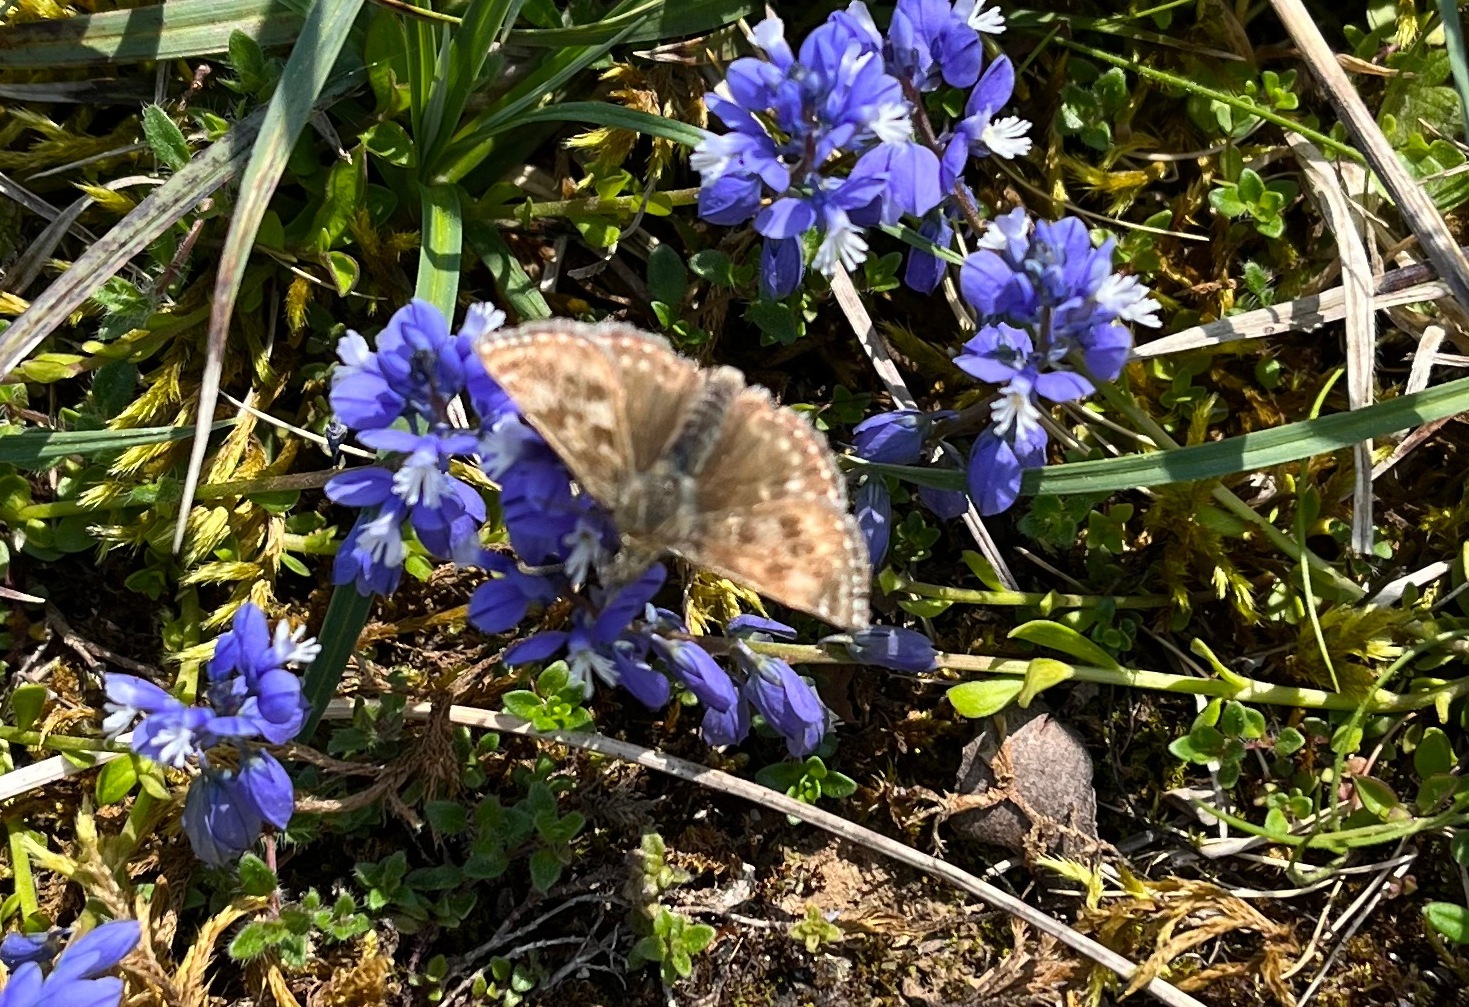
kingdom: Animalia
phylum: Arthropoda
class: Insecta
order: Lepidoptera
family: Hesperiidae
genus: Erynnis
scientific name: Erynnis tages
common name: Dingy skipper
